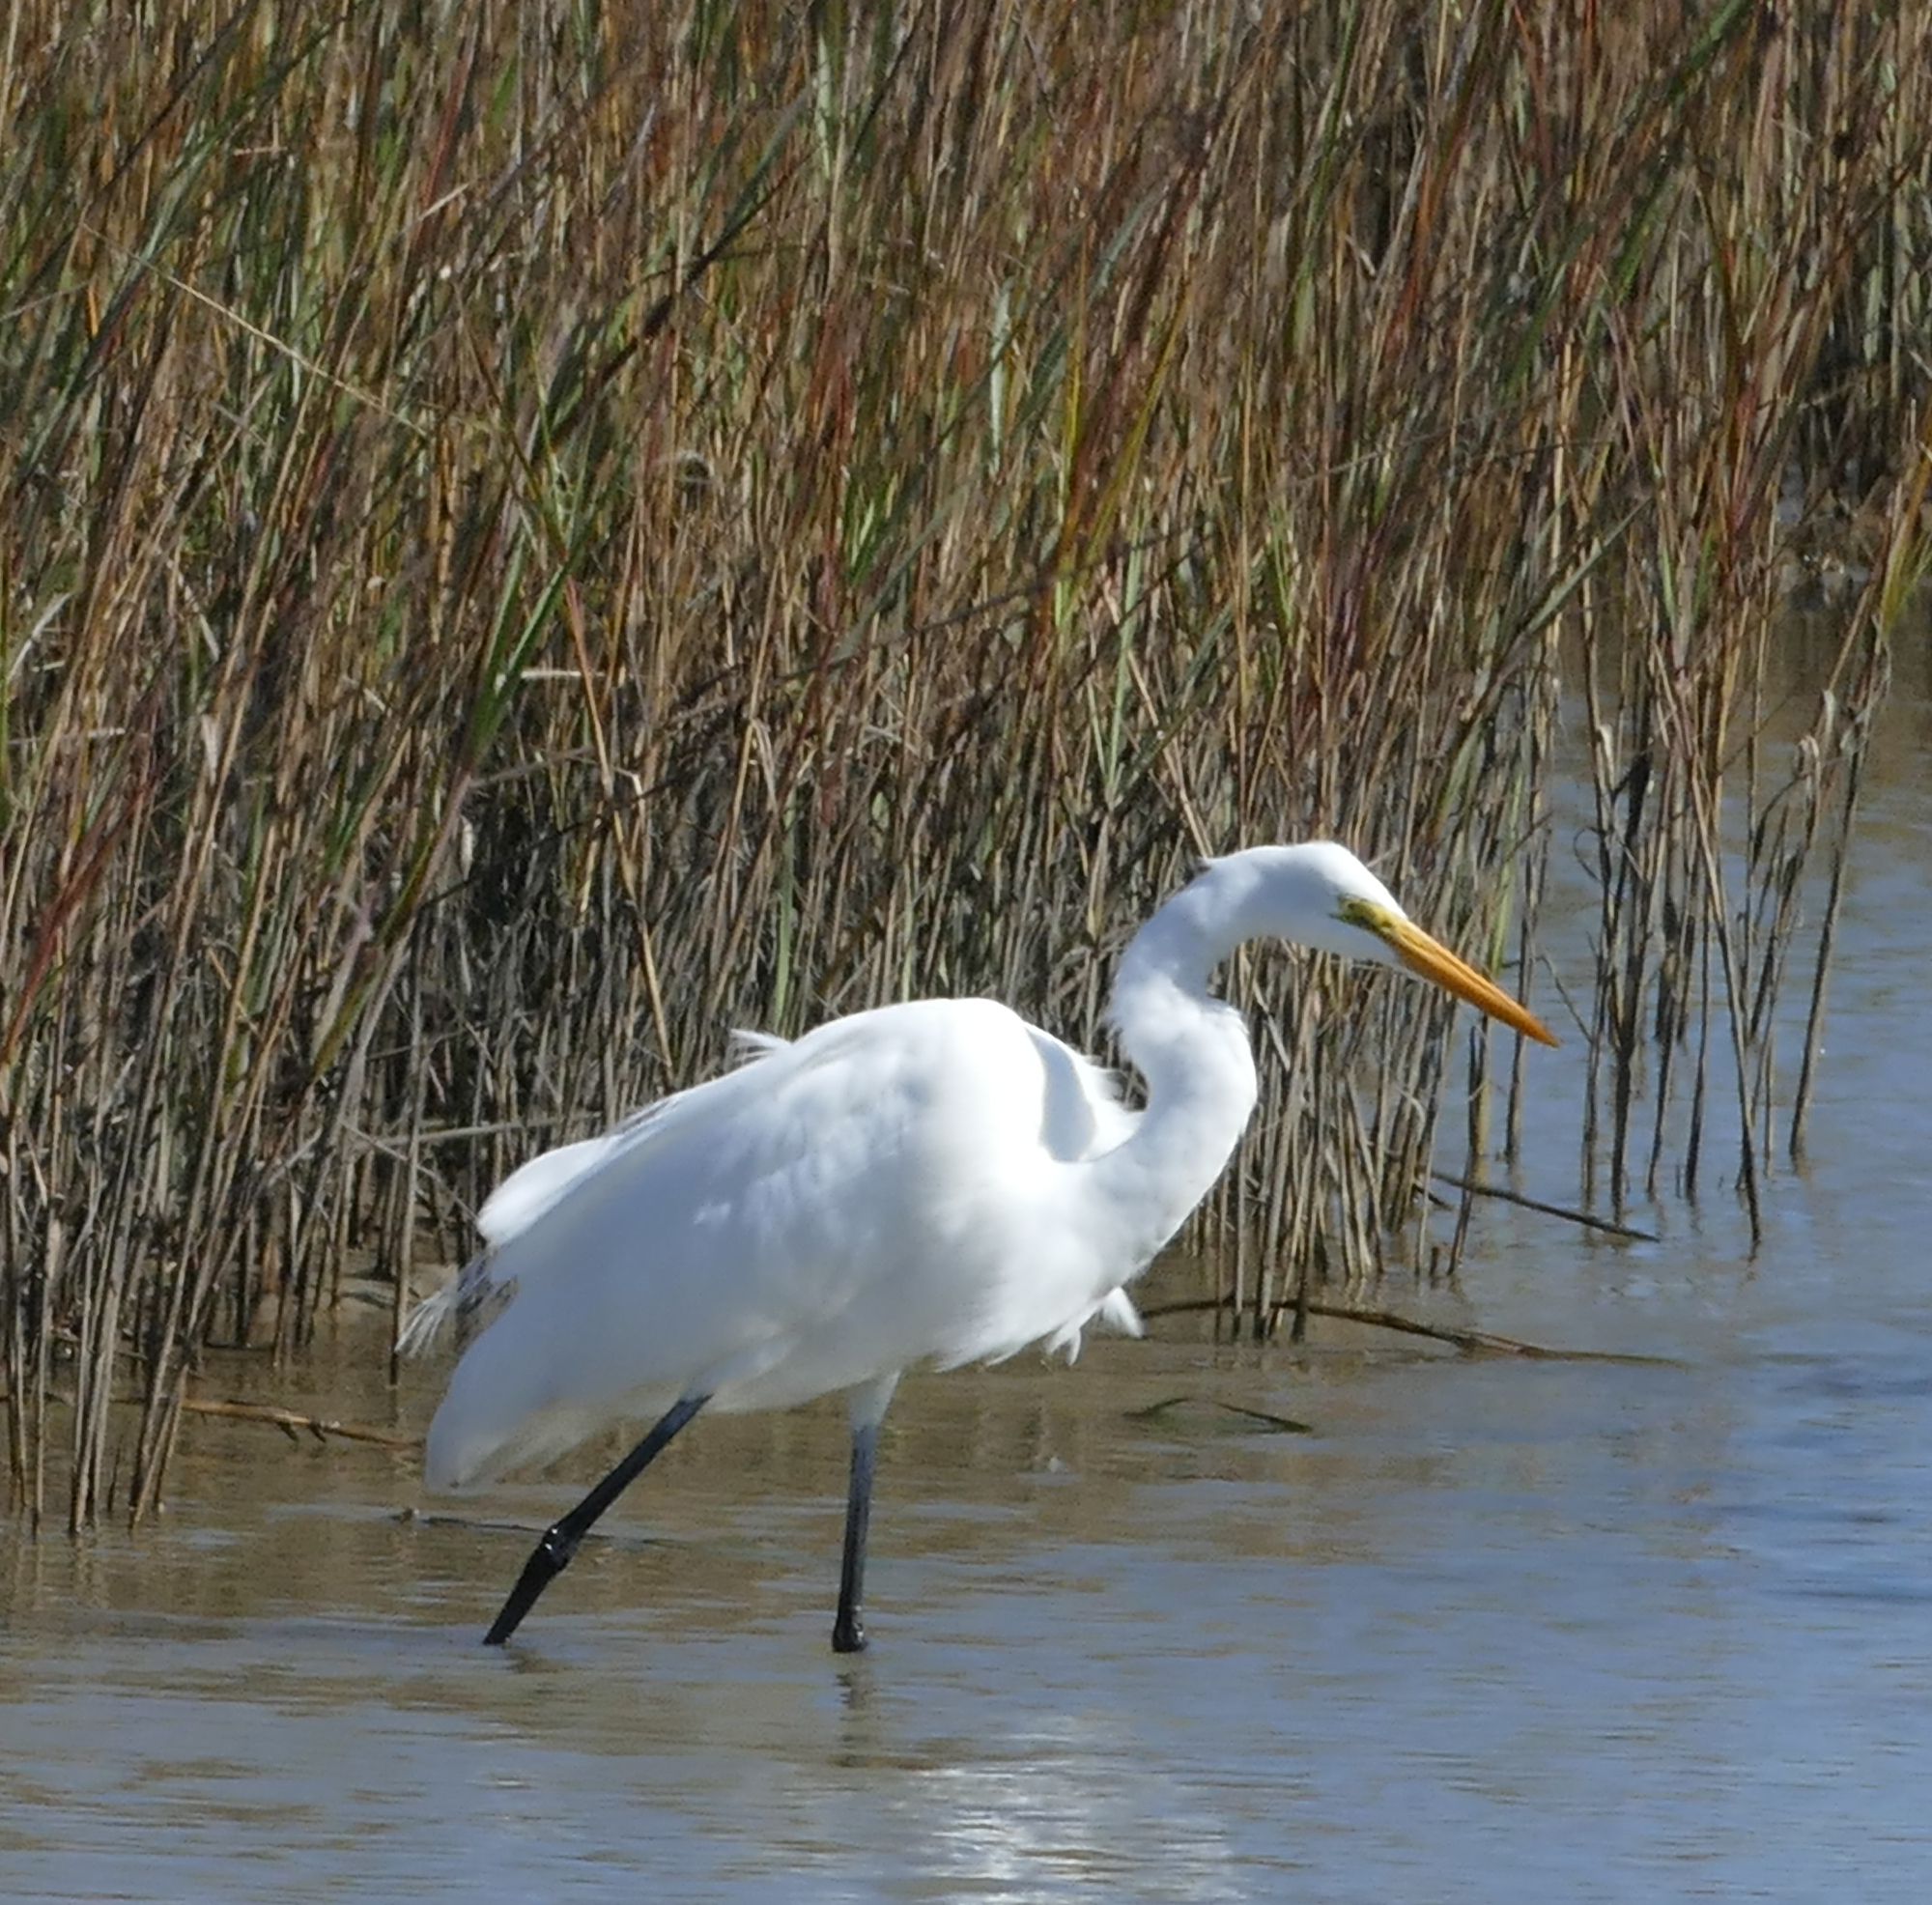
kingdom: Animalia
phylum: Chordata
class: Aves
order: Pelecaniformes
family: Ardeidae
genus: Ardea
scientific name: Ardea alba
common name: Great egret
